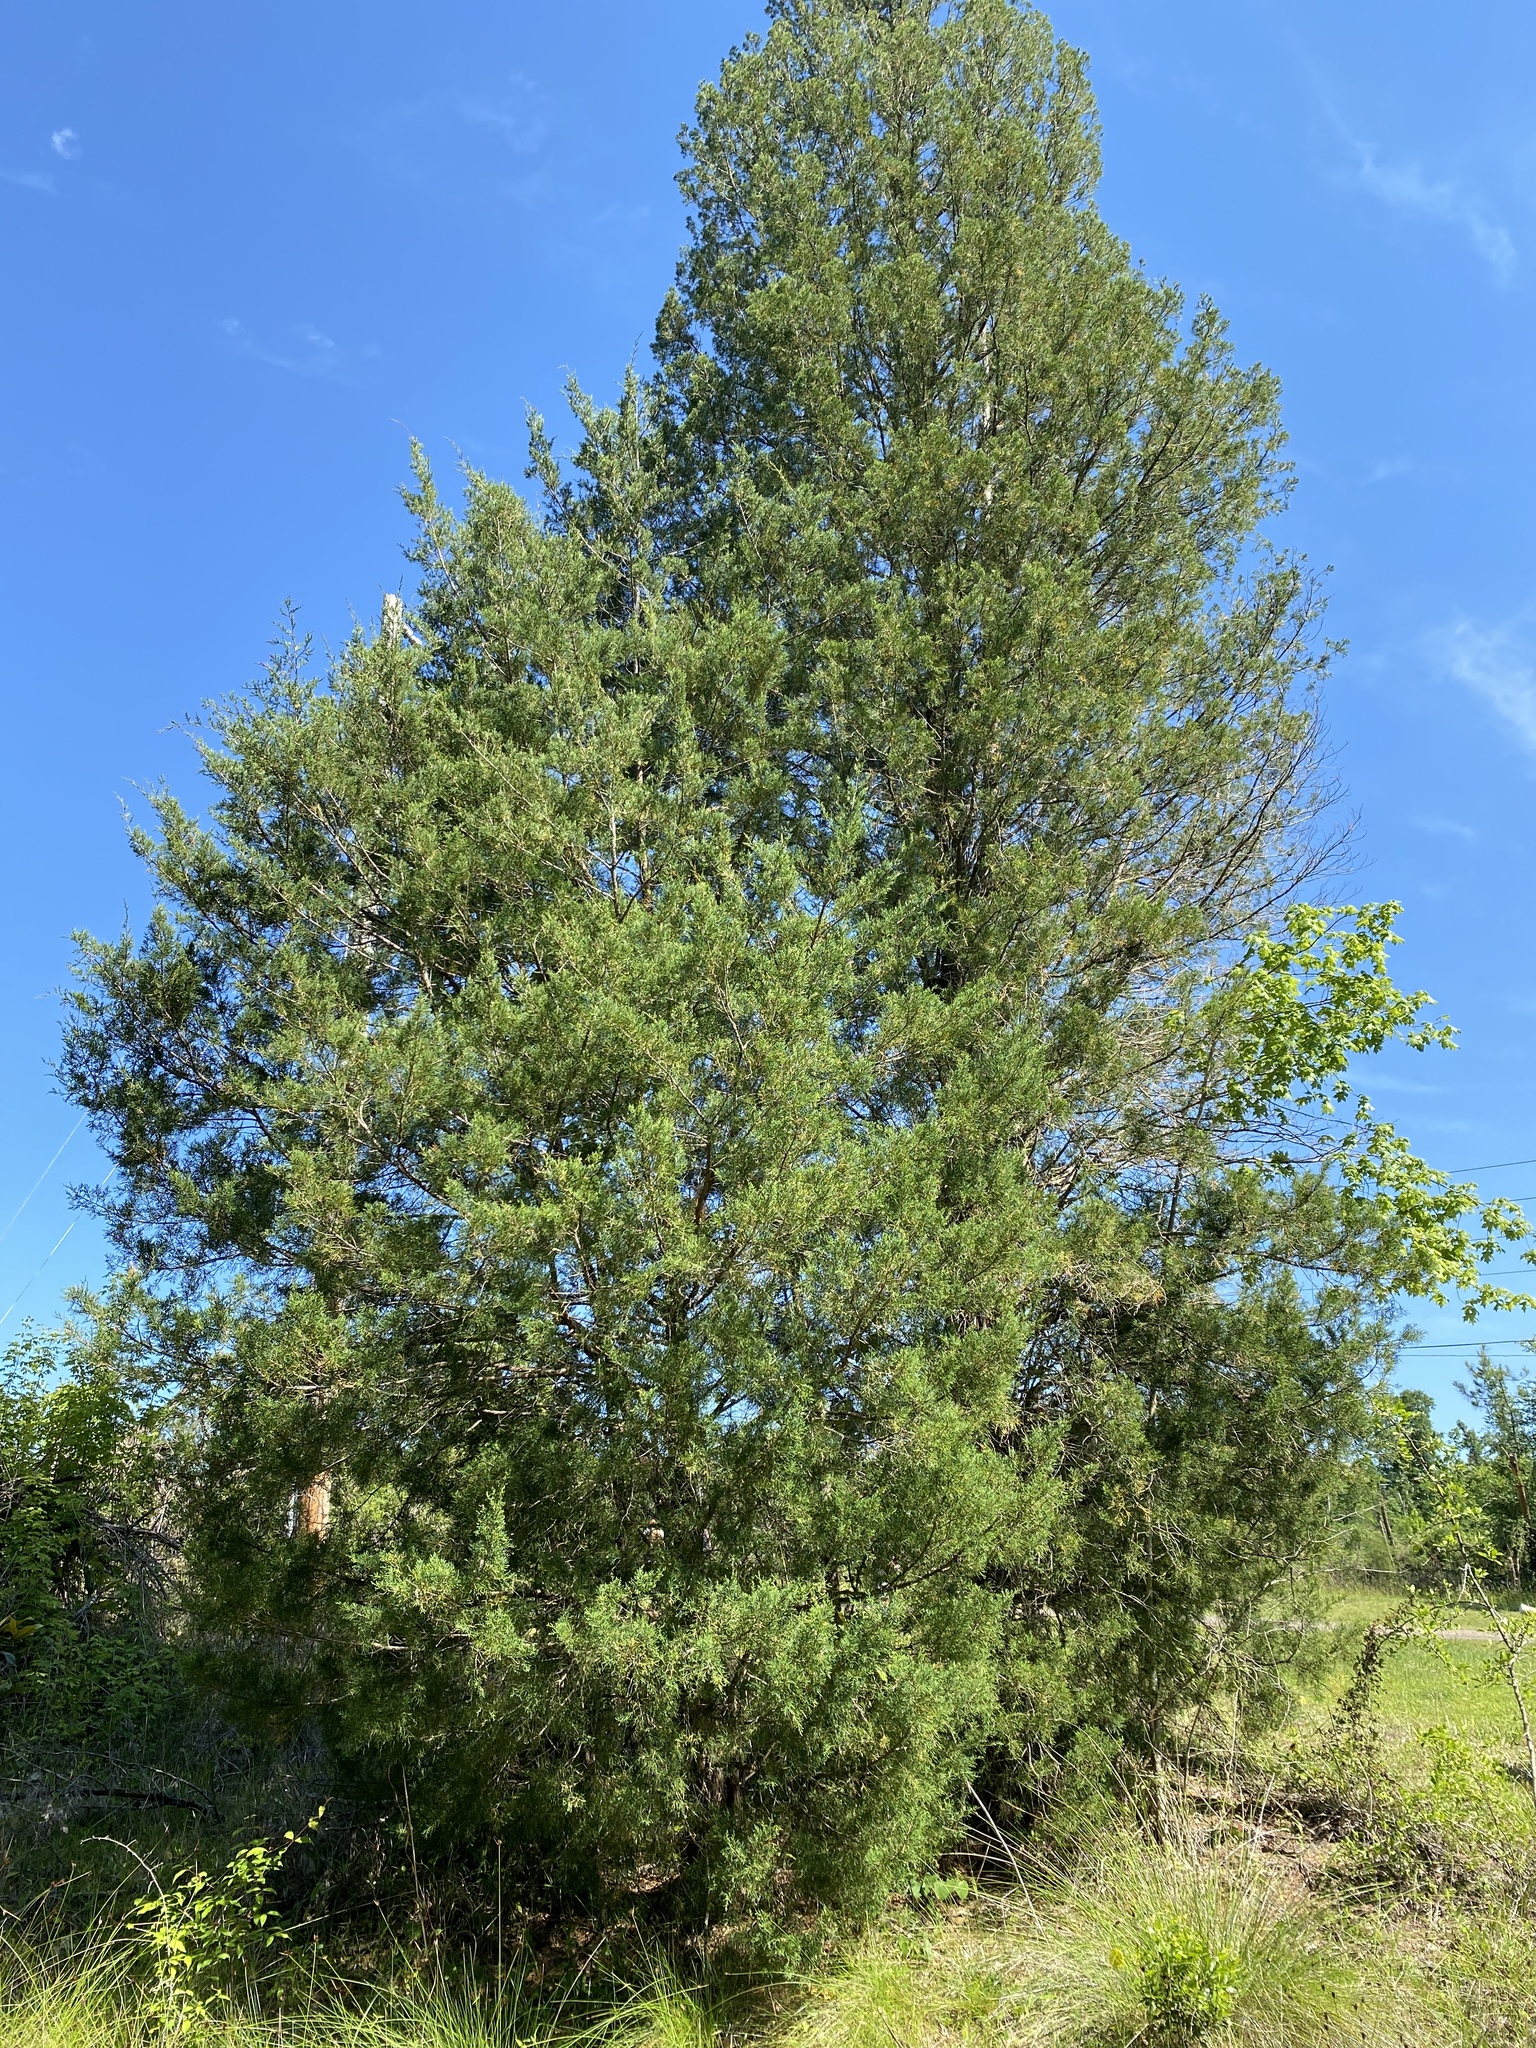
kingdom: Plantae
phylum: Tracheophyta
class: Pinopsida
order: Pinales
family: Cupressaceae
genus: Juniperus
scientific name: Juniperus virginiana
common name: Red juniper
